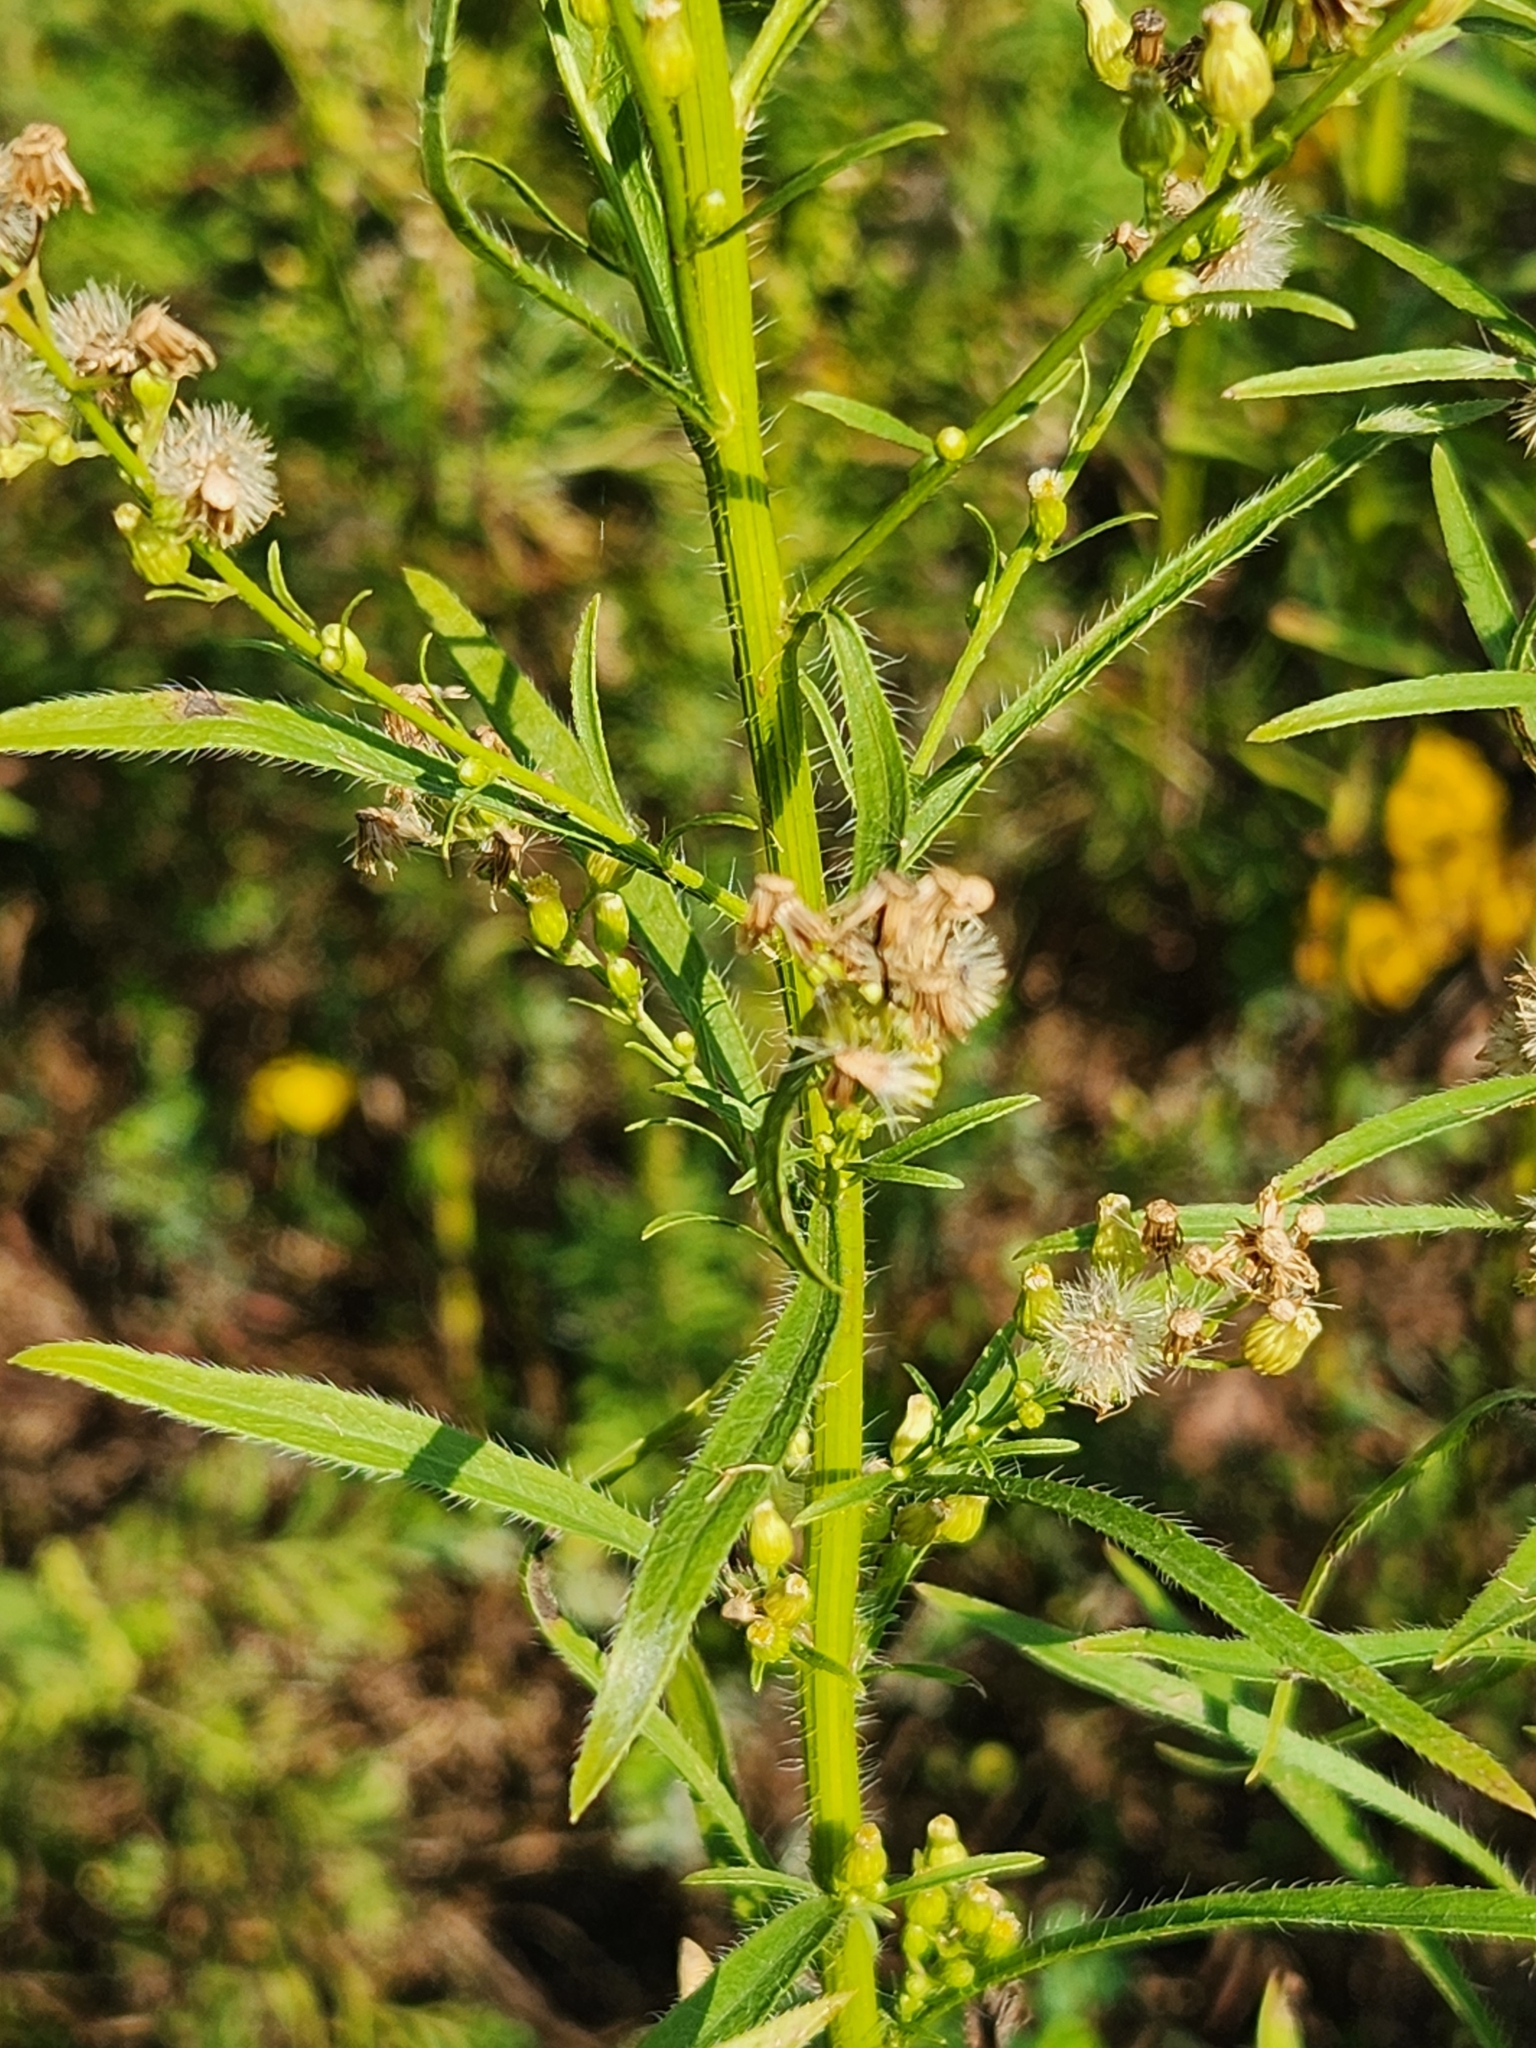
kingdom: Plantae
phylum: Tracheophyta
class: Magnoliopsida
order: Asterales
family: Asteraceae
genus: Erigeron
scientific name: Erigeron canadensis
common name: Canadian fleabane
